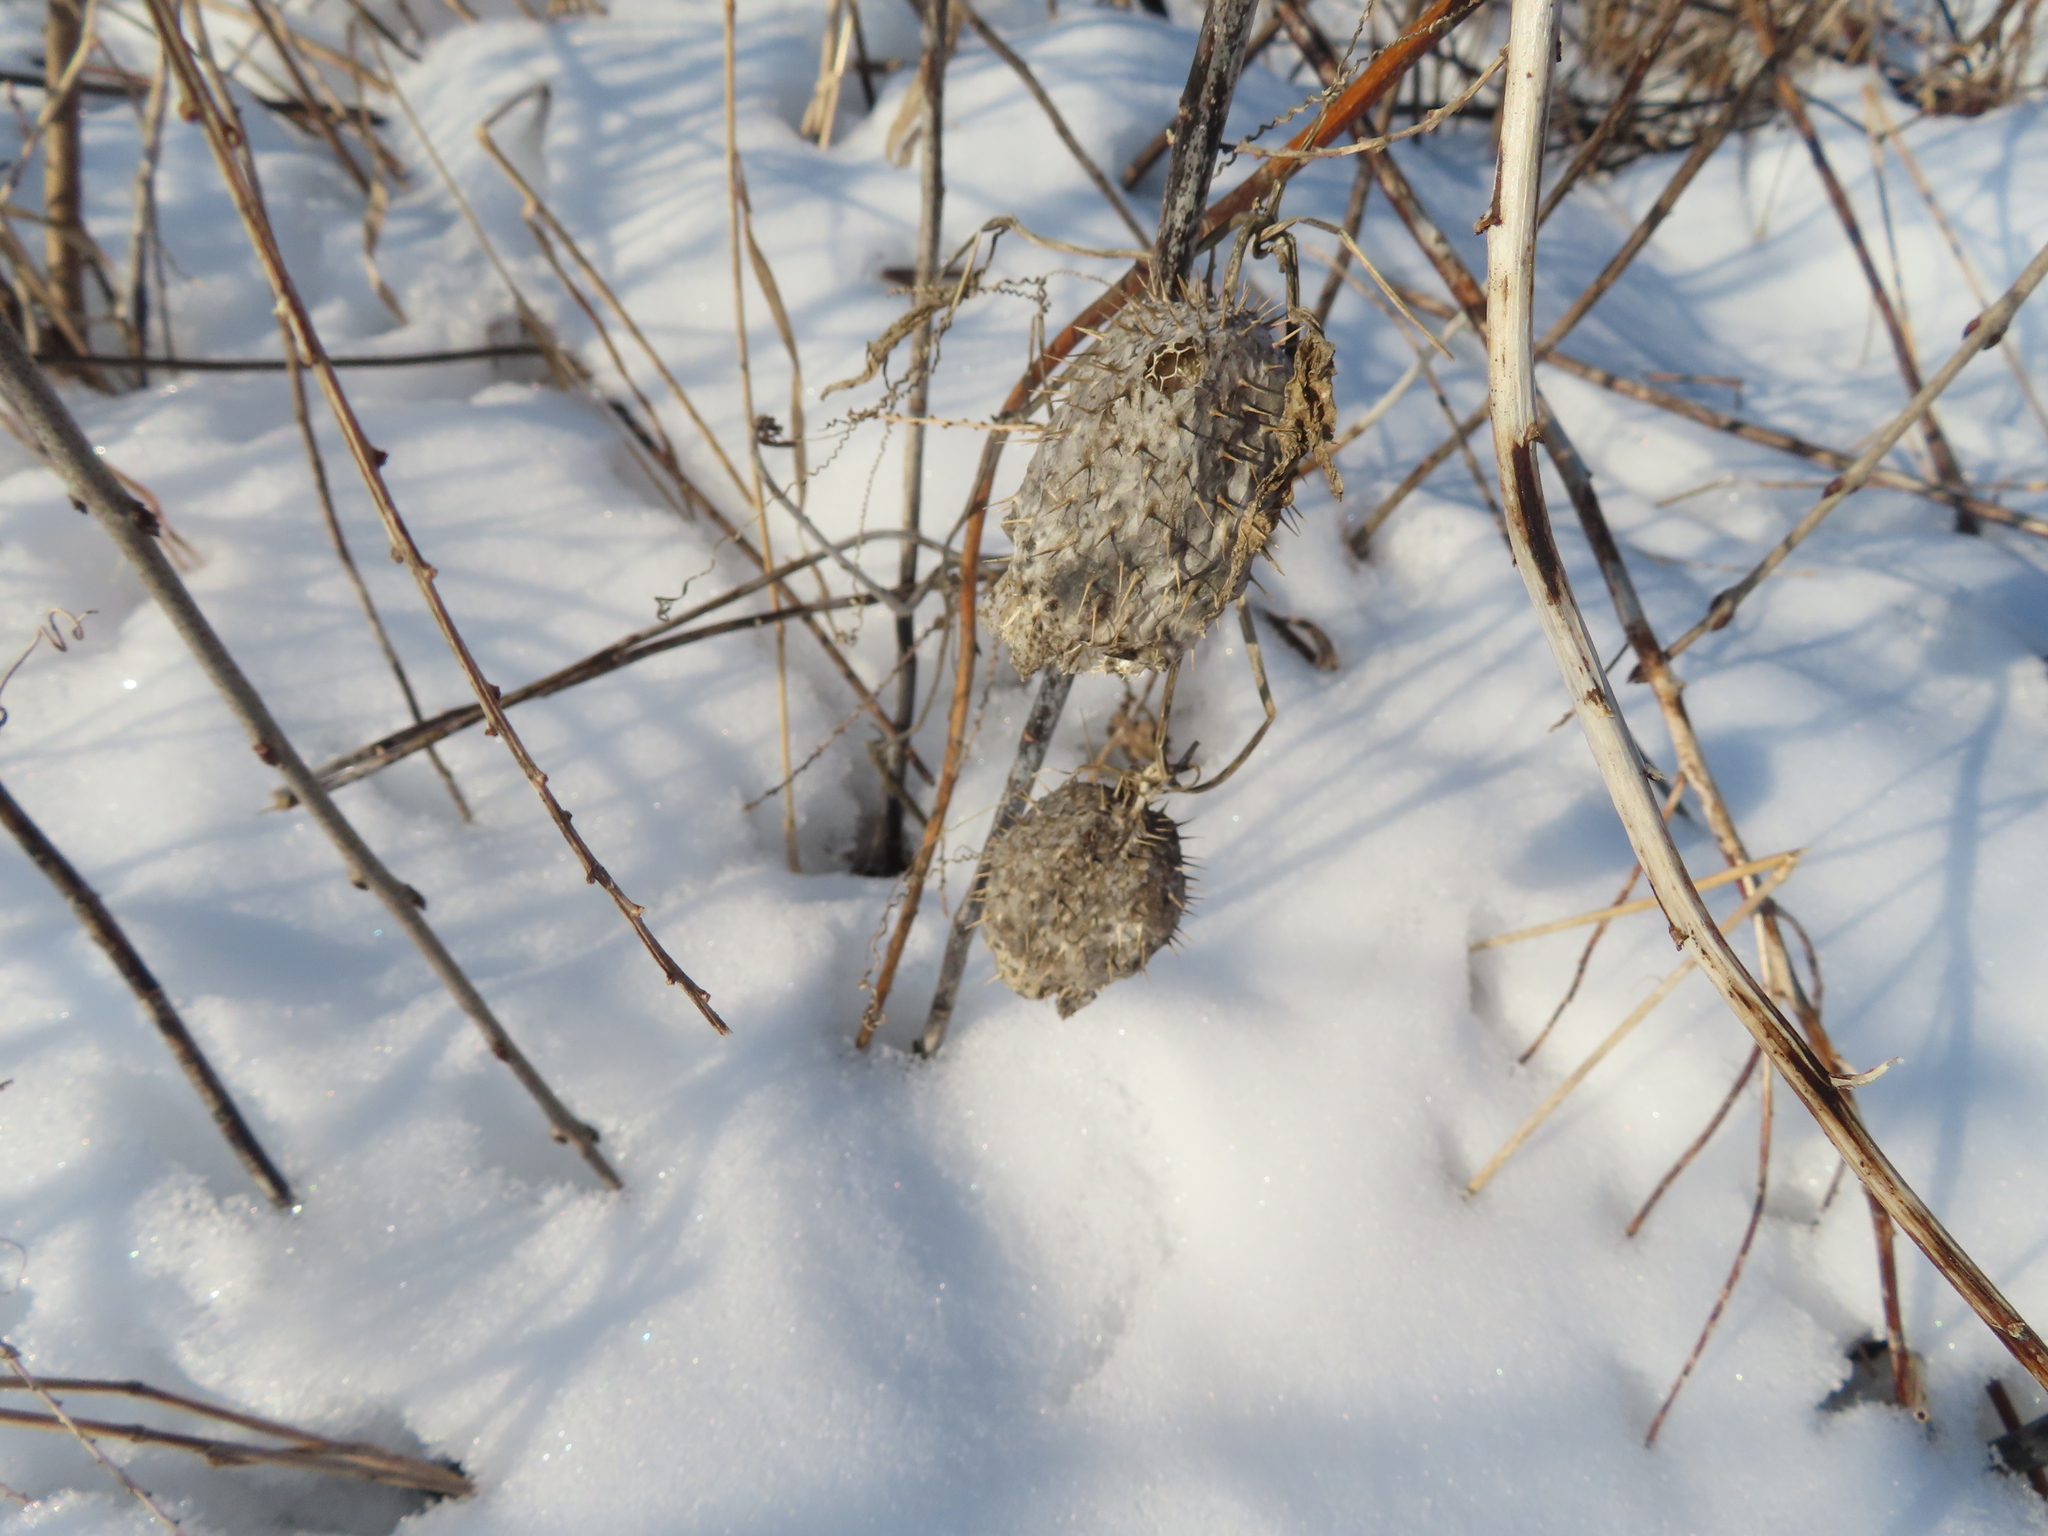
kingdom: Plantae
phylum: Tracheophyta
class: Magnoliopsida
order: Cucurbitales
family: Cucurbitaceae
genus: Echinocystis
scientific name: Echinocystis lobata
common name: Wild cucumber
